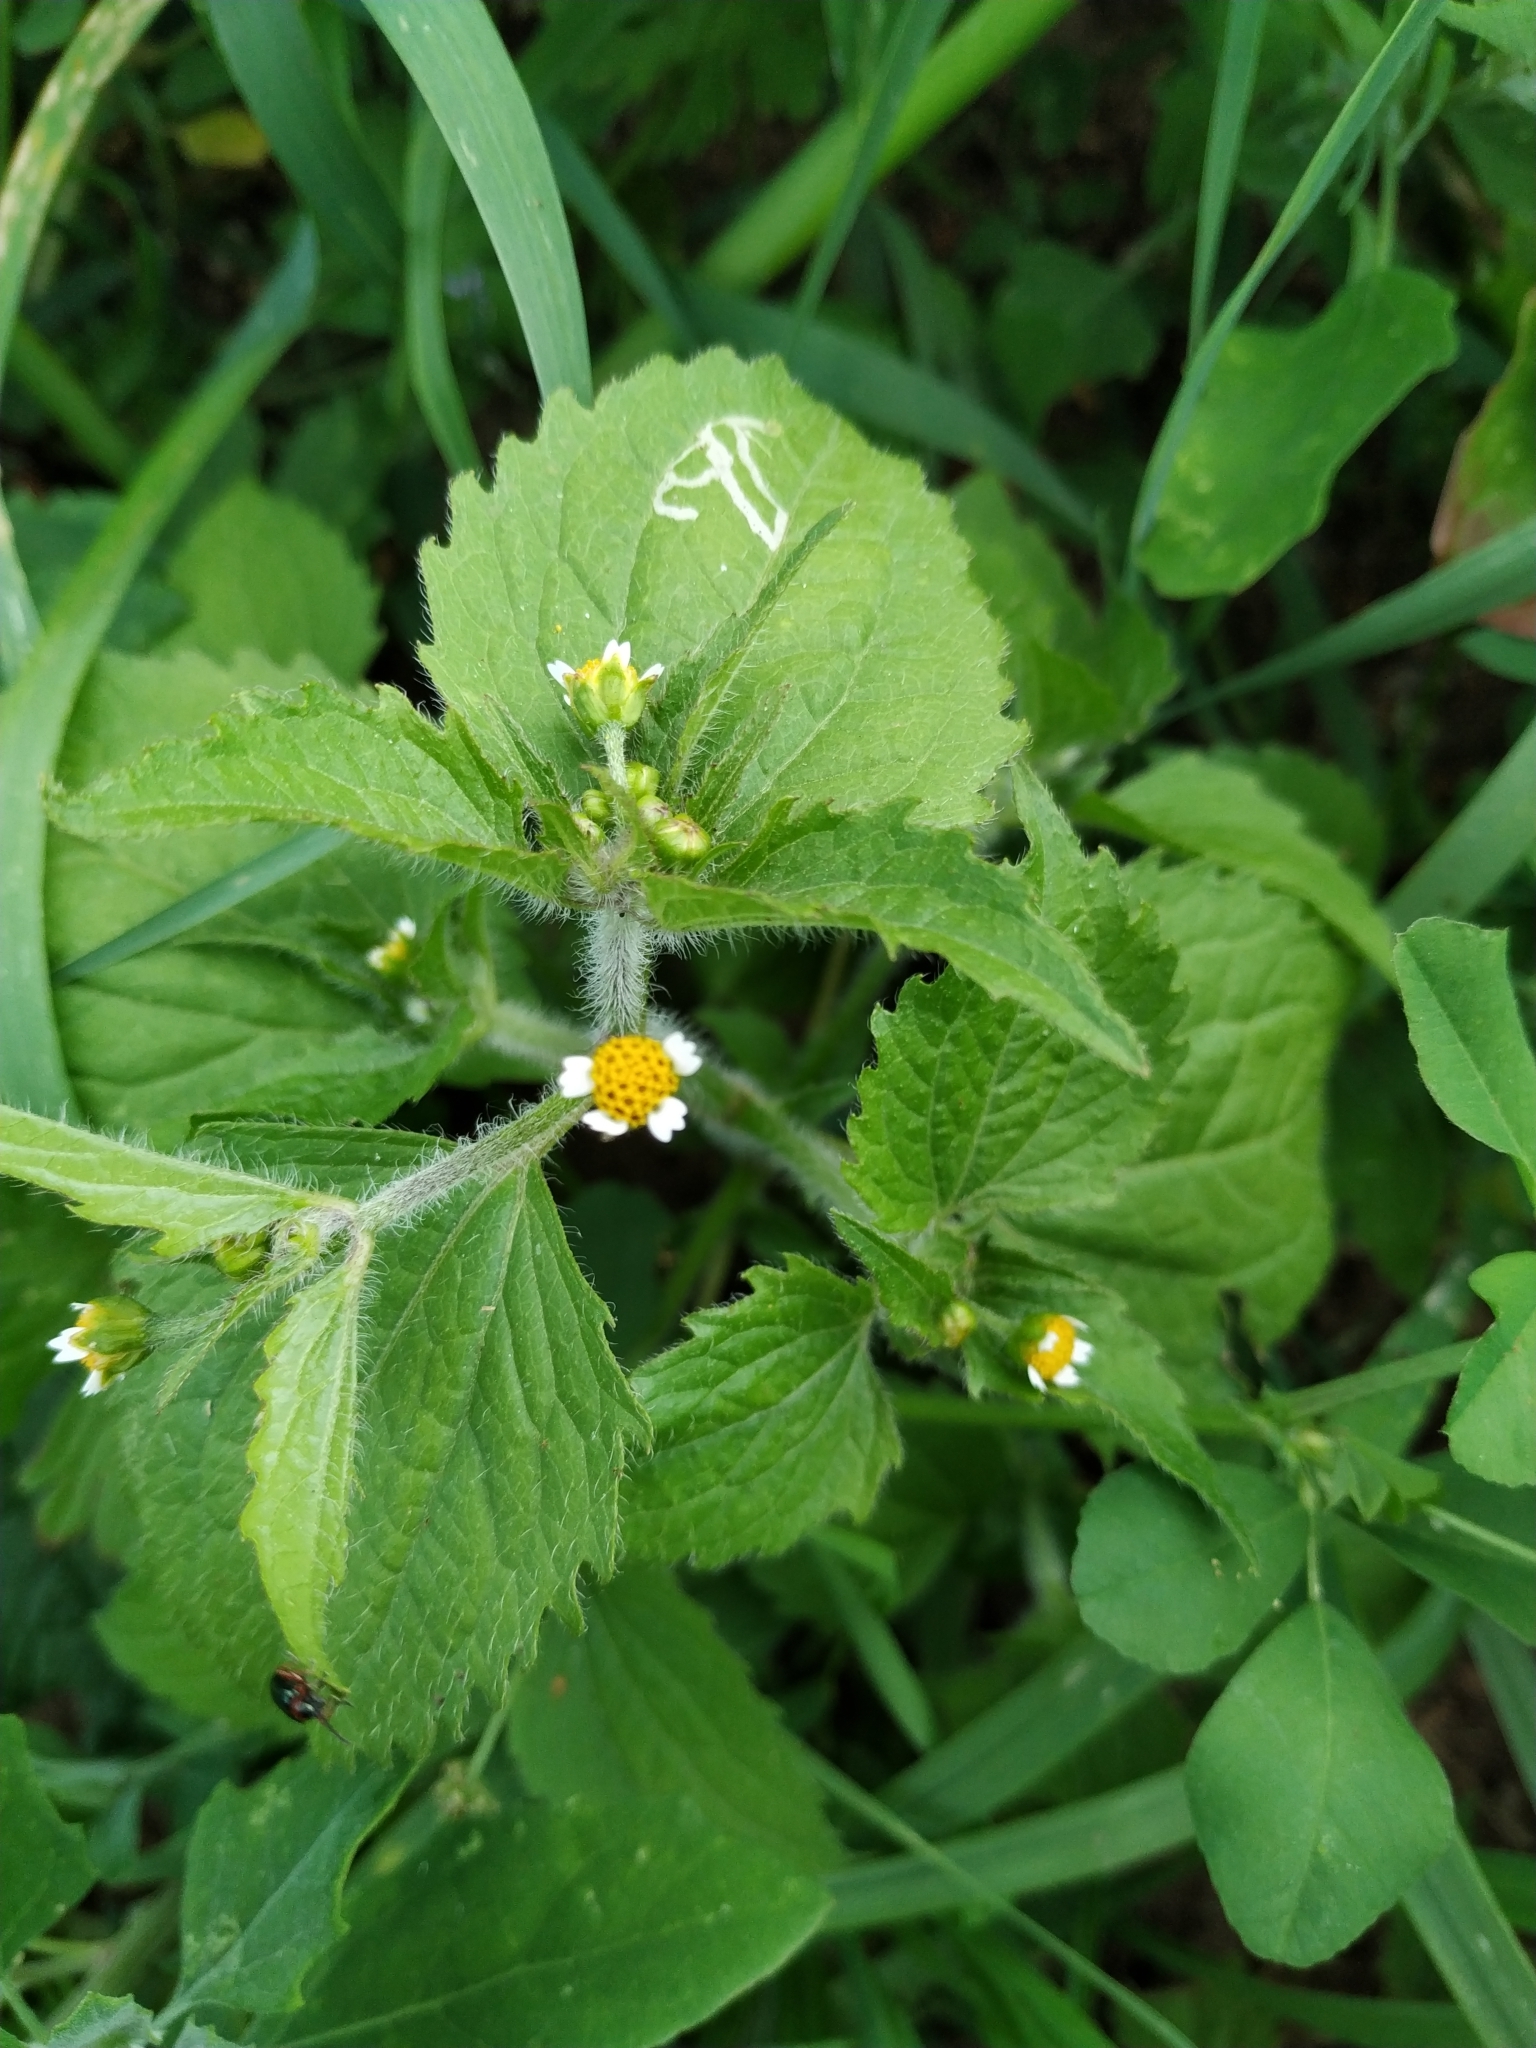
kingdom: Plantae
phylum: Tracheophyta
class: Magnoliopsida
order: Asterales
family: Asteraceae
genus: Galinsoga
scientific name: Galinsoga quadriradiata
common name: Shaggy soldier
